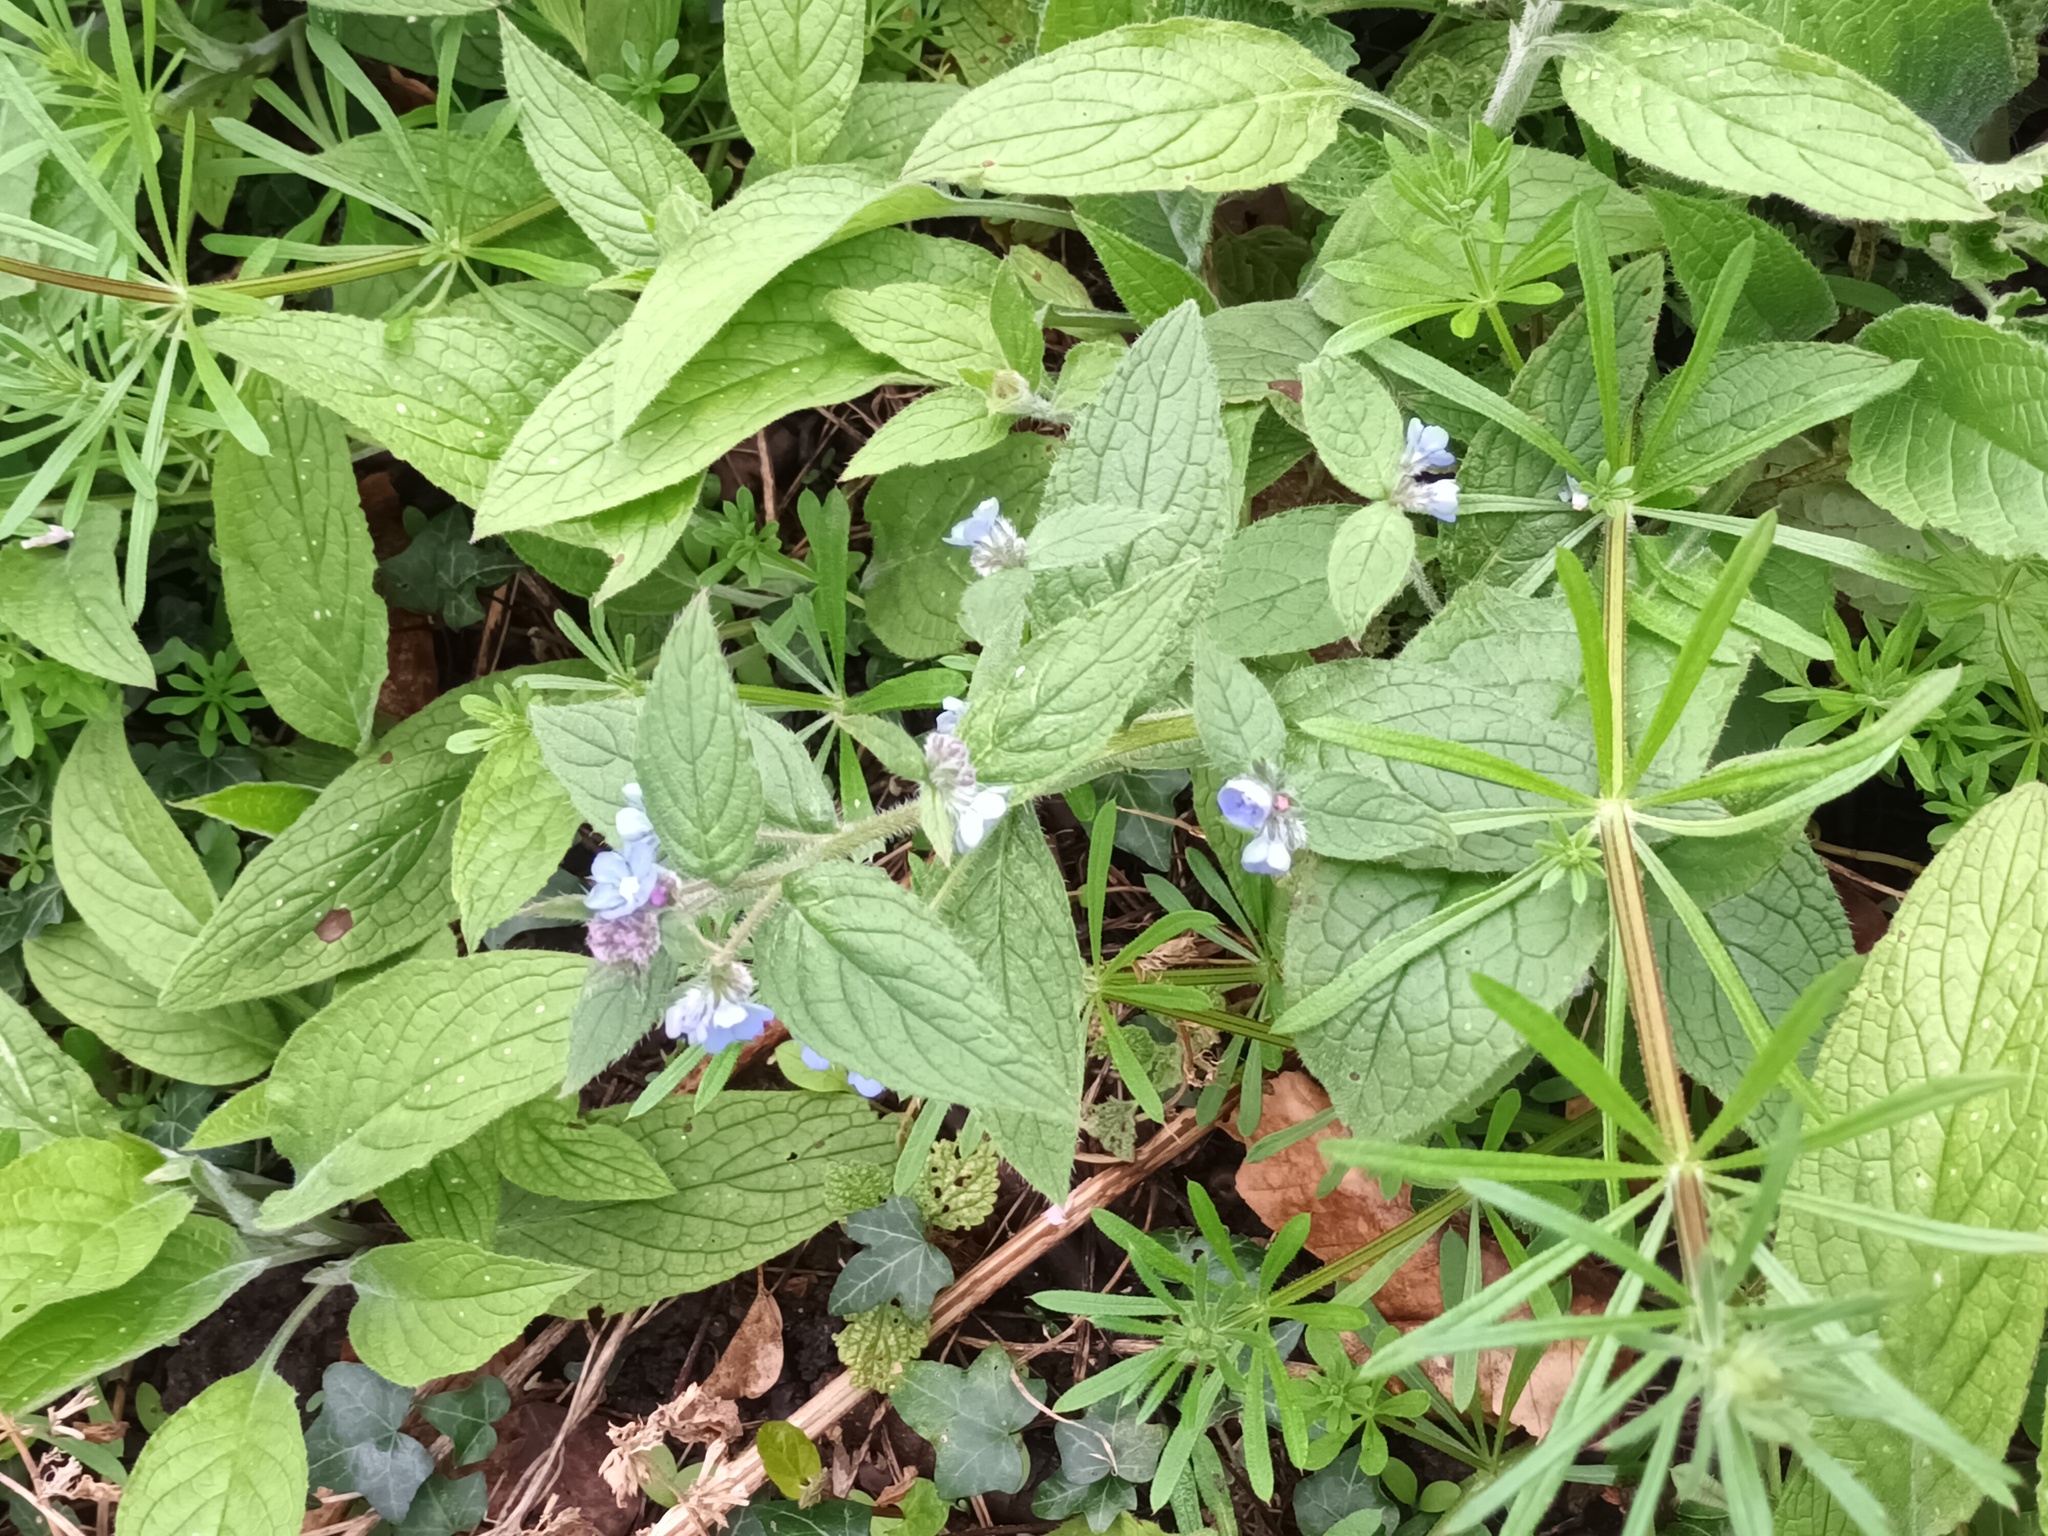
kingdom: Plantae
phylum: Tracheophyta
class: Magnoliopsida
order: Boraginales
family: Boraginaceae
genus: Pentaglottis
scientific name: Pentaglottis sempervirens
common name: Green alkanet
